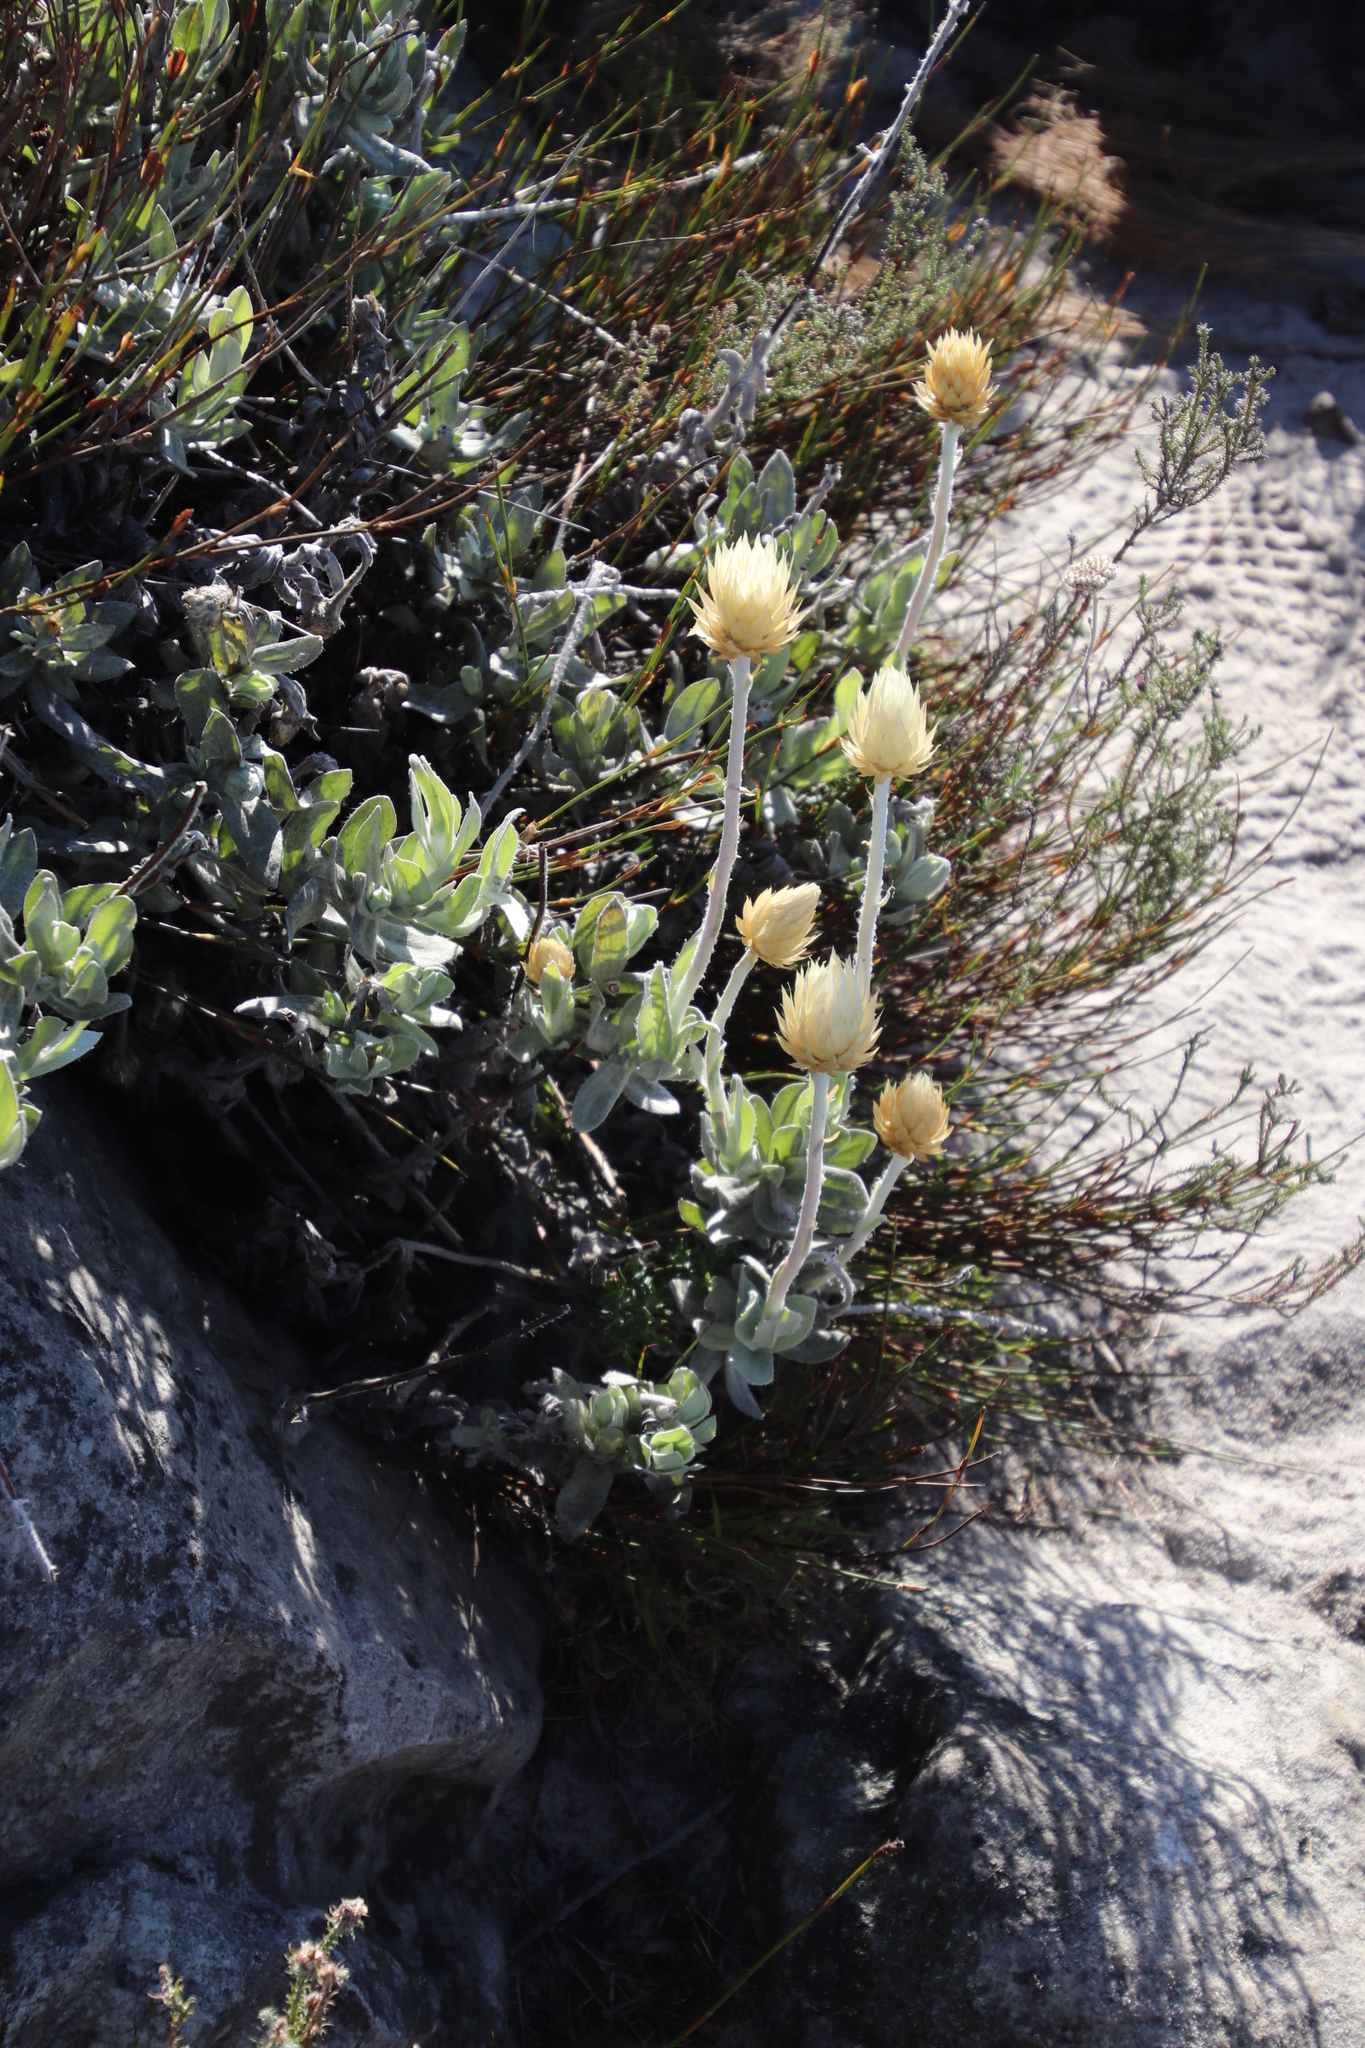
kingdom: Plantae
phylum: Tracheophyta
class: Magnoliopsida
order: Asterales
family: Asteraceae
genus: Syncarpha
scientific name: Syncarpha speciosissima
